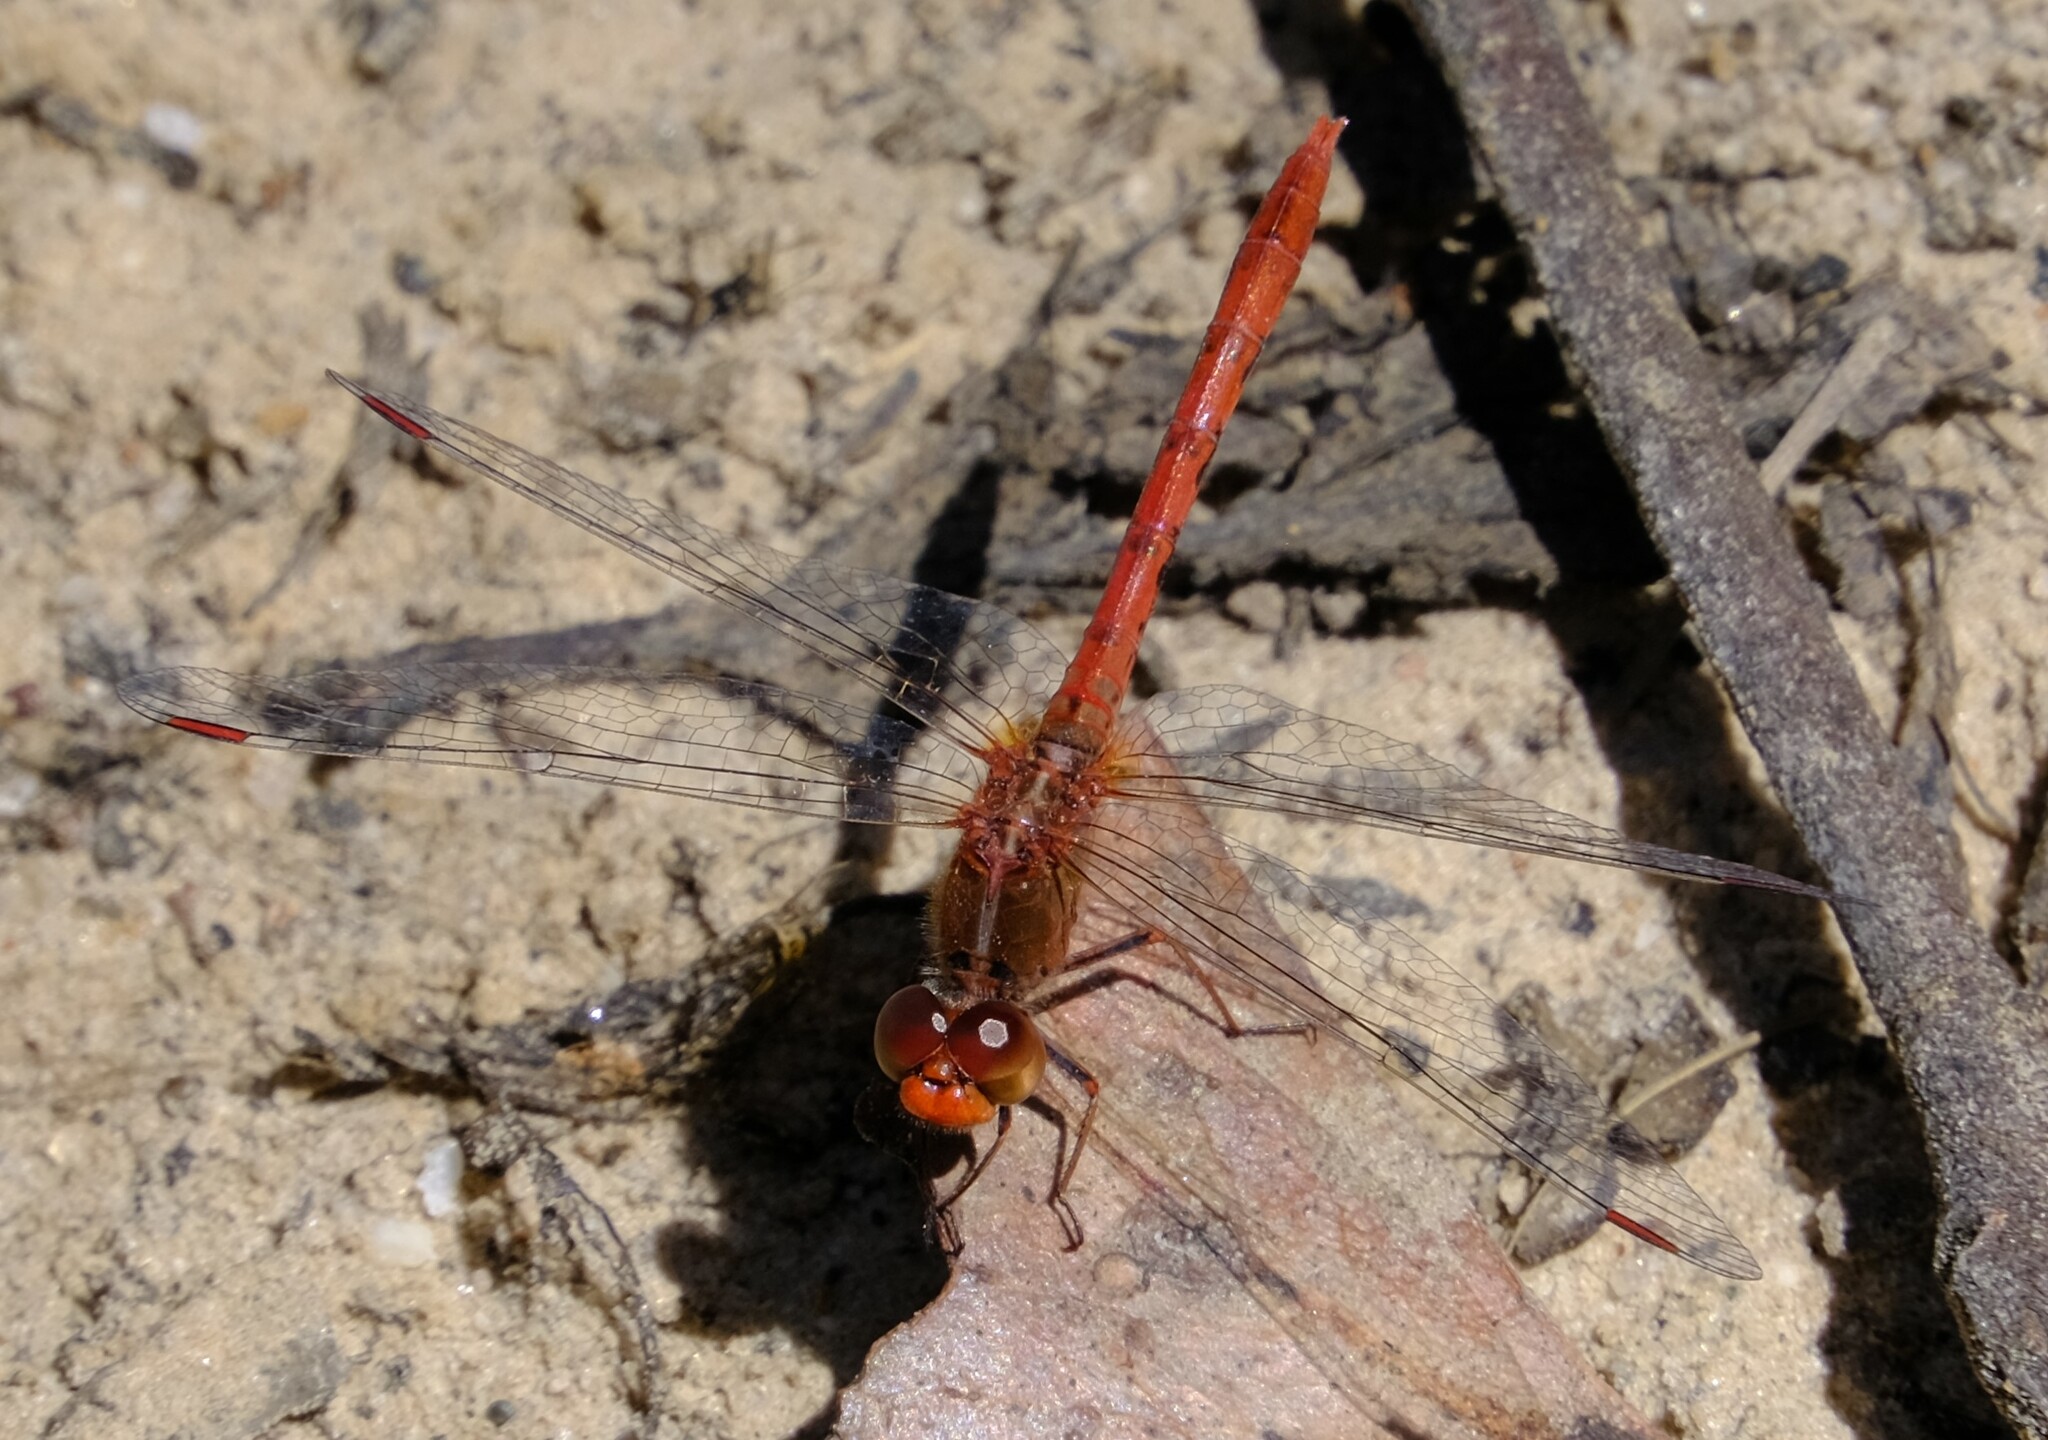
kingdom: Animalia
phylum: Arthropoda
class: Insecta
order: Odonata
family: Libellulidae
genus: Diplacodes
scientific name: Diplacodes bipunctata
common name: Red percher dragonfly
